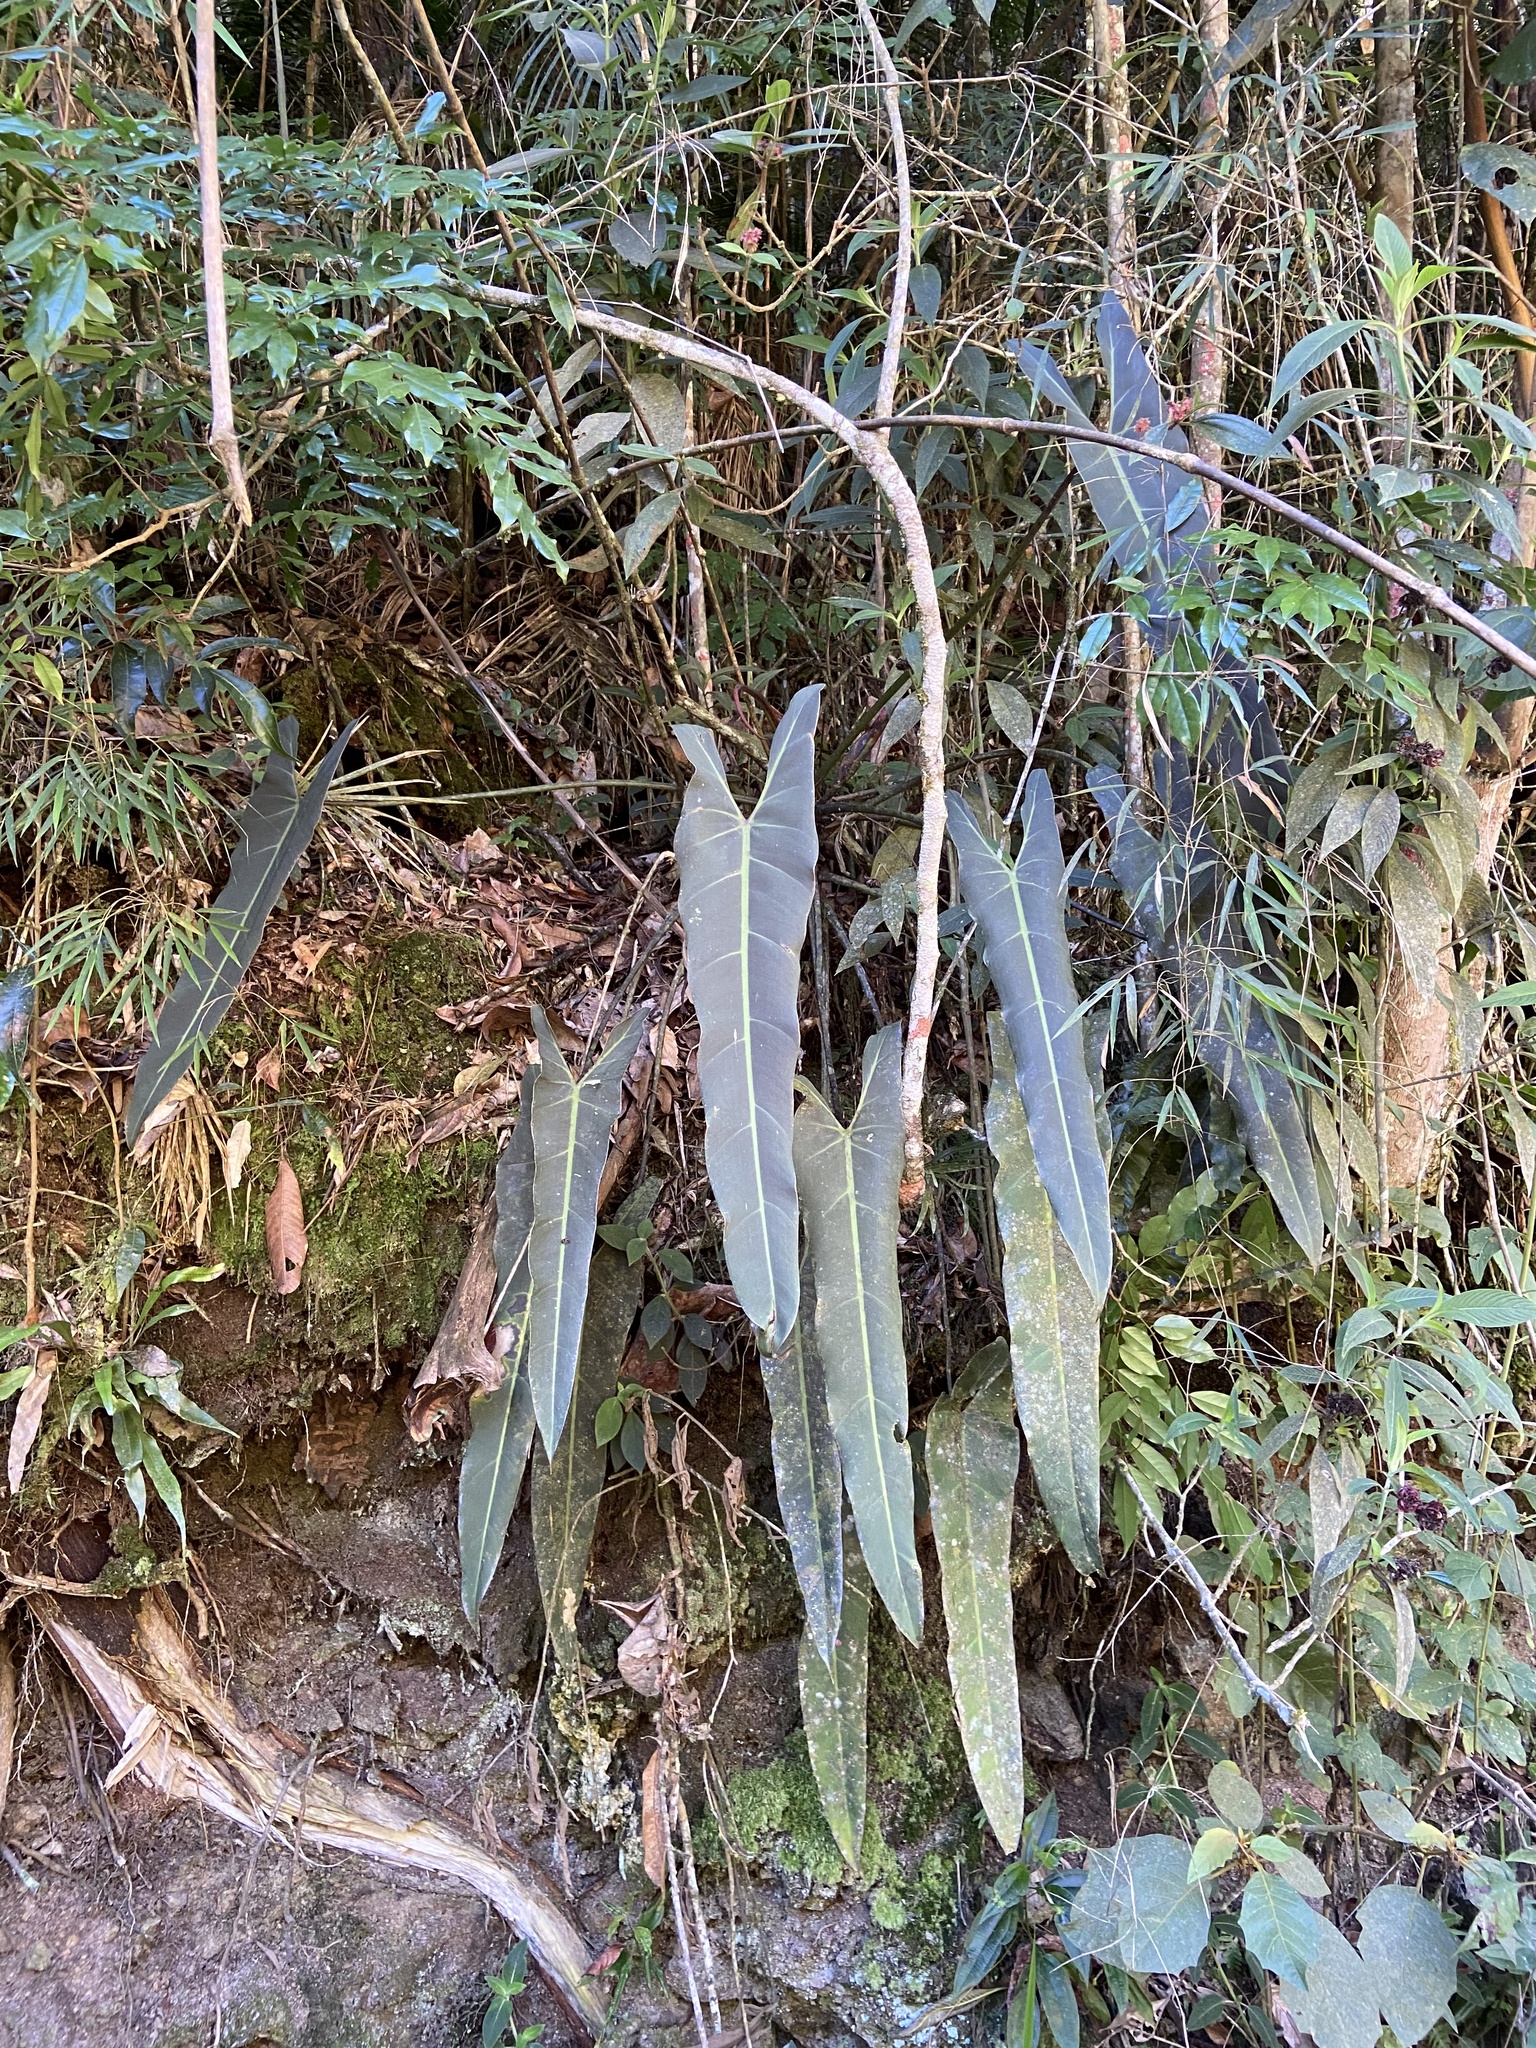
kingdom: Plantae
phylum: Tracheophyta
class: Liliopsida
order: Alismatales
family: Araceae
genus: Philodendron
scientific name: Philodendron spiritus-sancti
